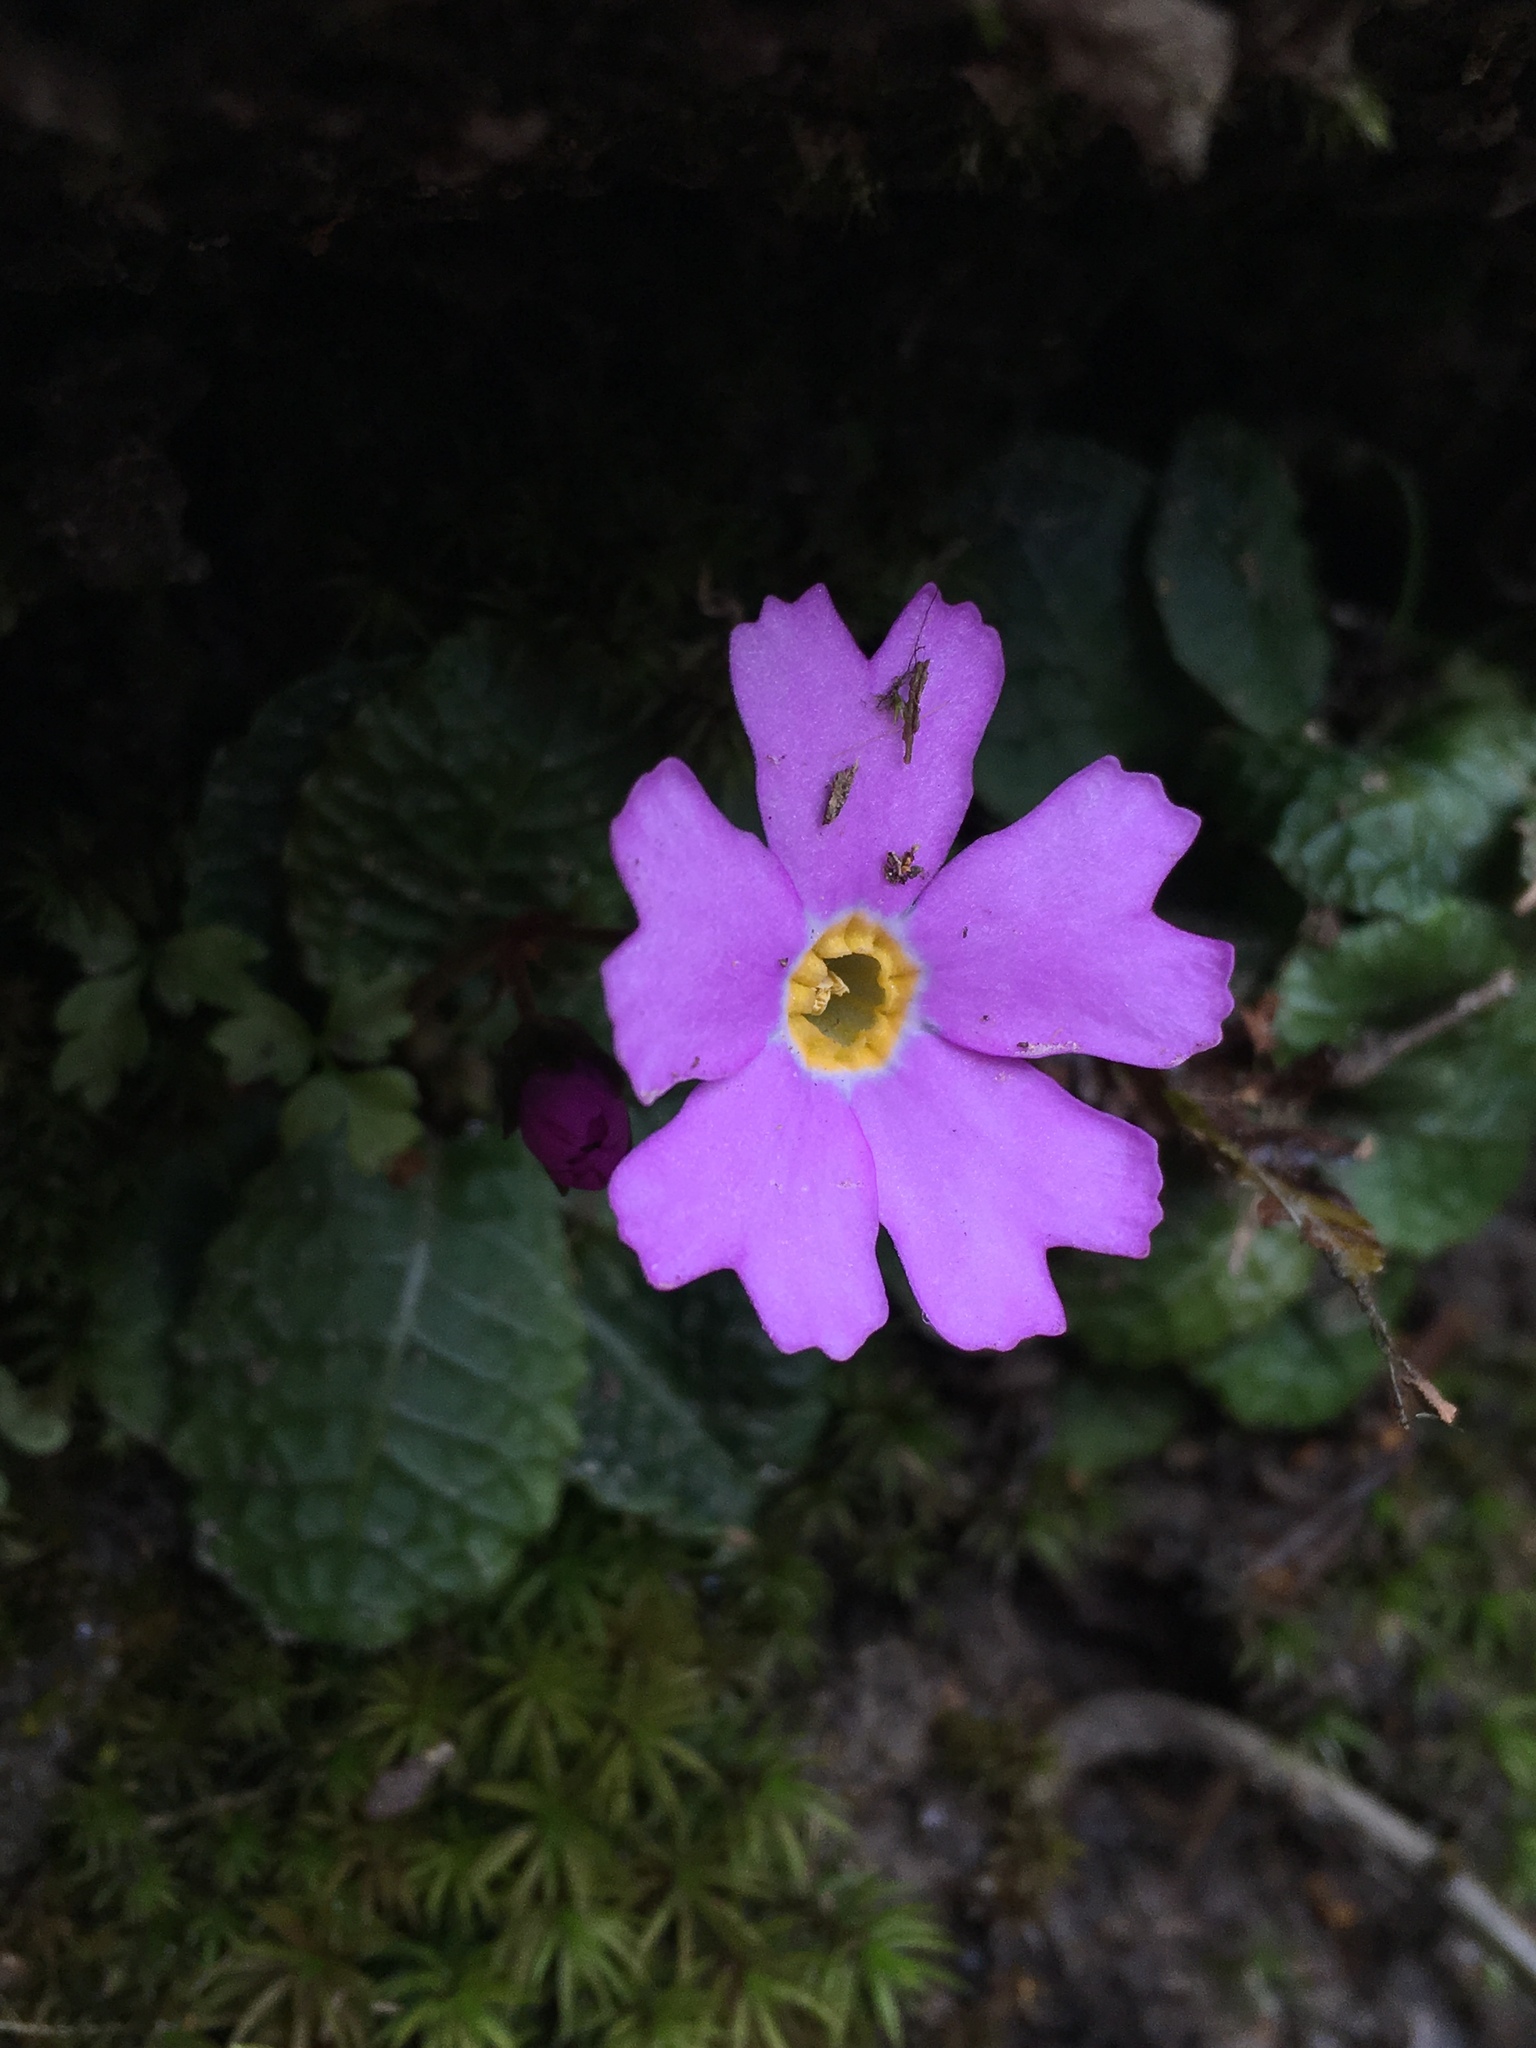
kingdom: Plantae
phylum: Tracheophyta
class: Magnoliopsida
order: Ericales
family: Primulaceae
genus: Primula
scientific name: Primula nghialoensis
